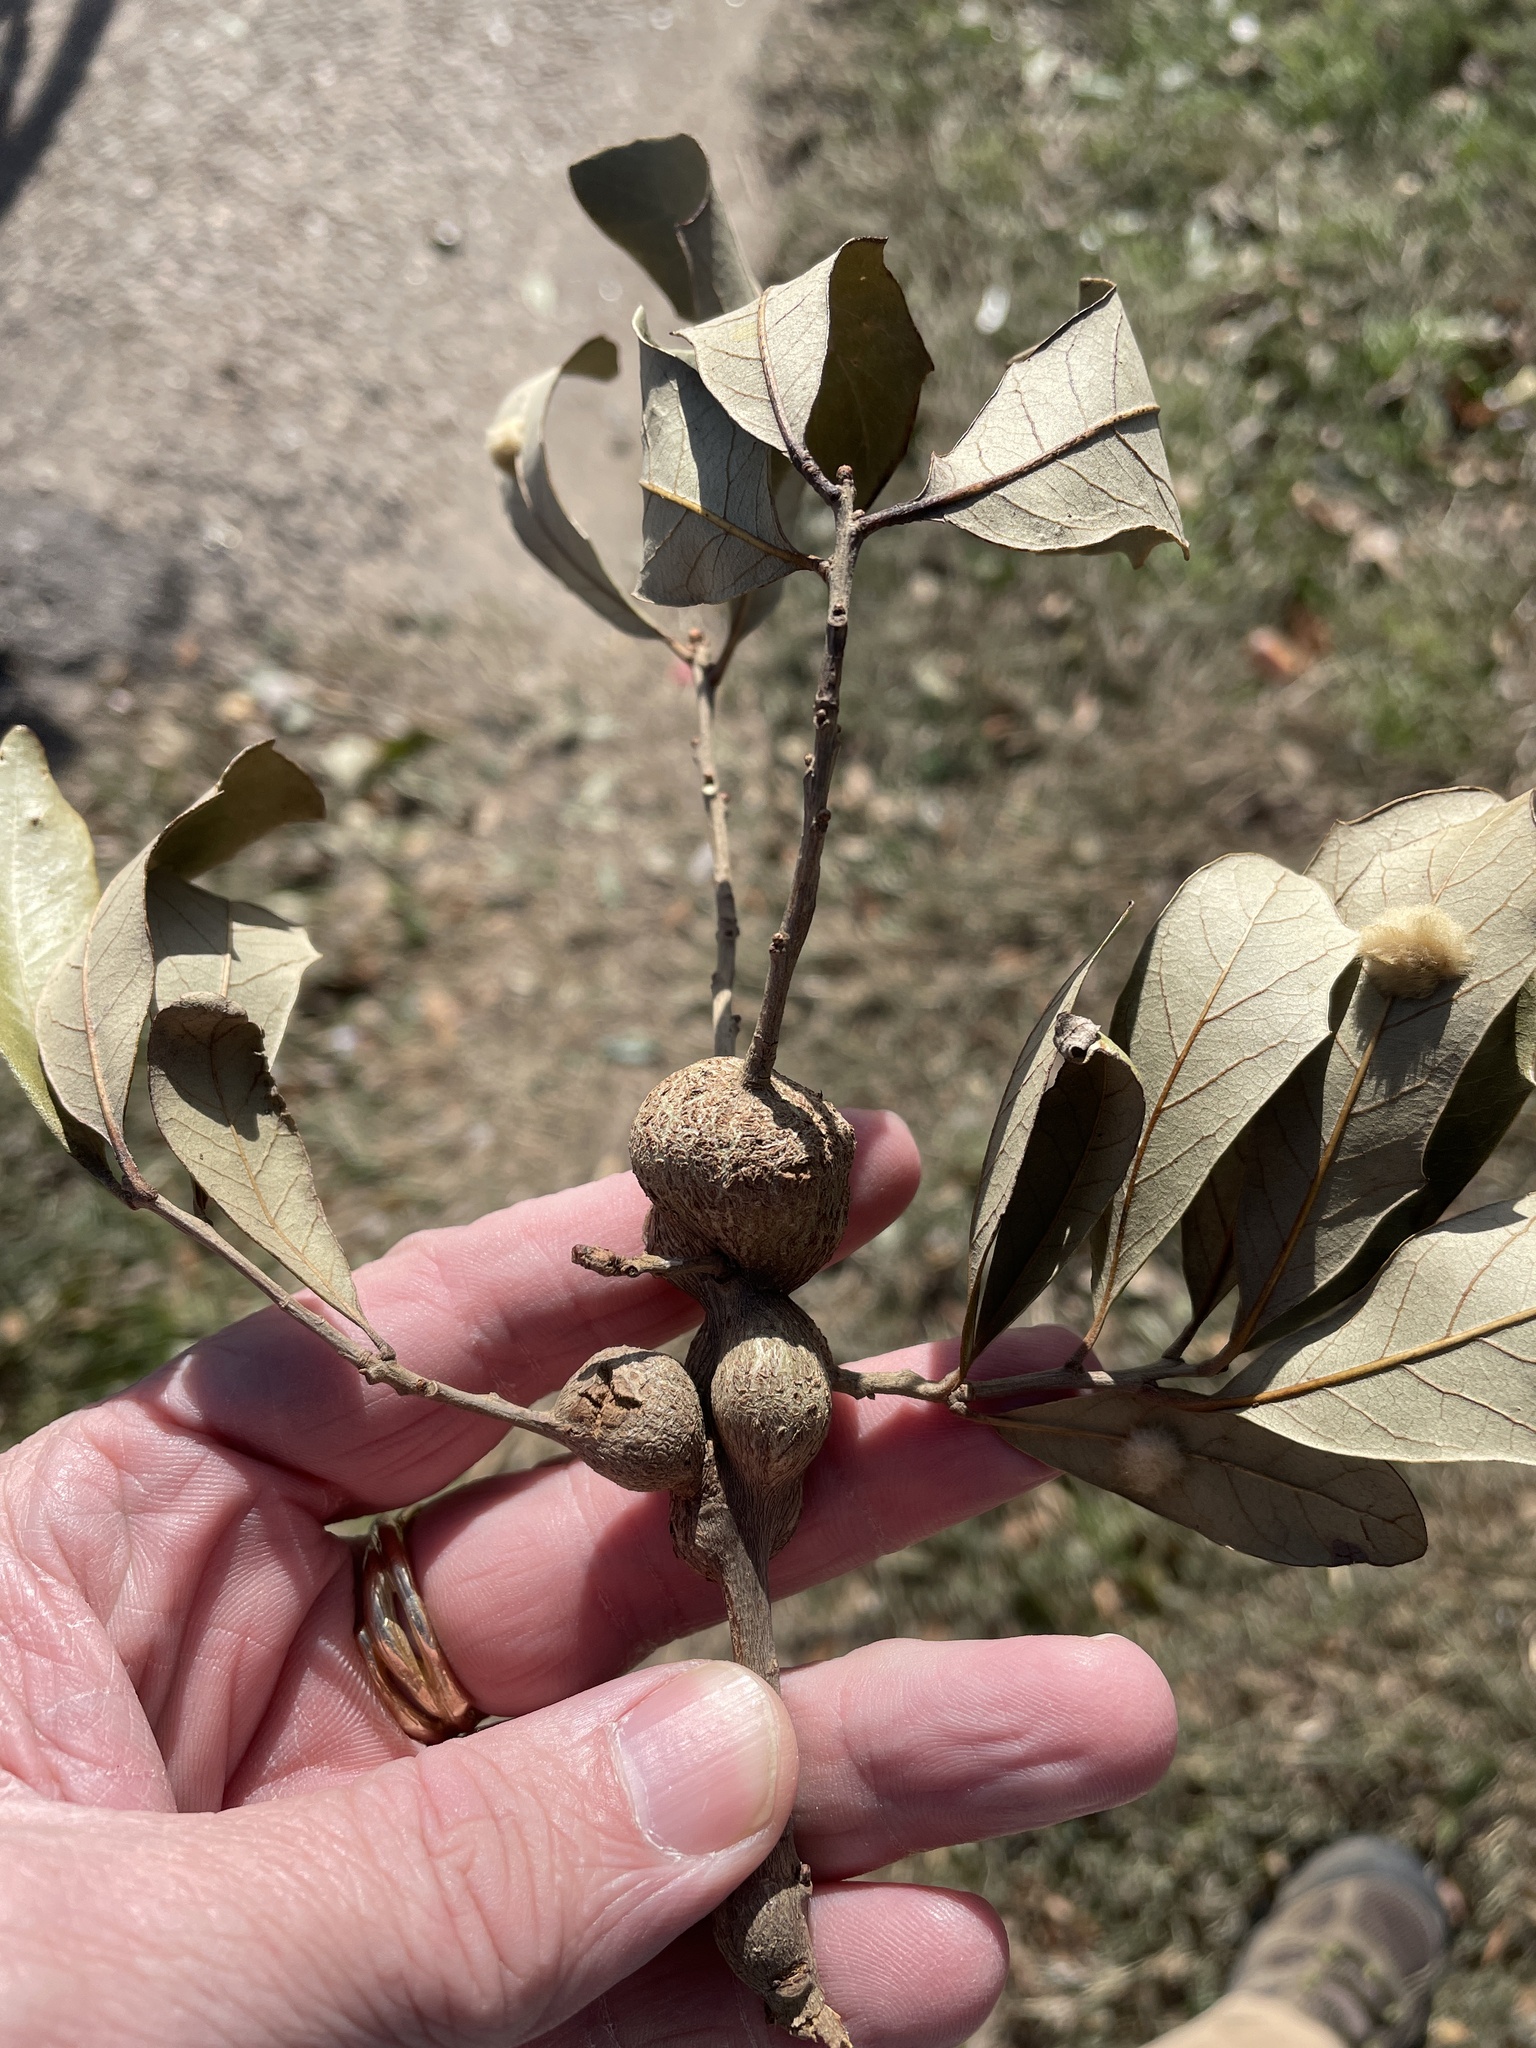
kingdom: Animalia
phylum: Arthropoda
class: Insecta
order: Hymenoptera
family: Cynipidae
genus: Callirhytis
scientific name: Callirhytis
